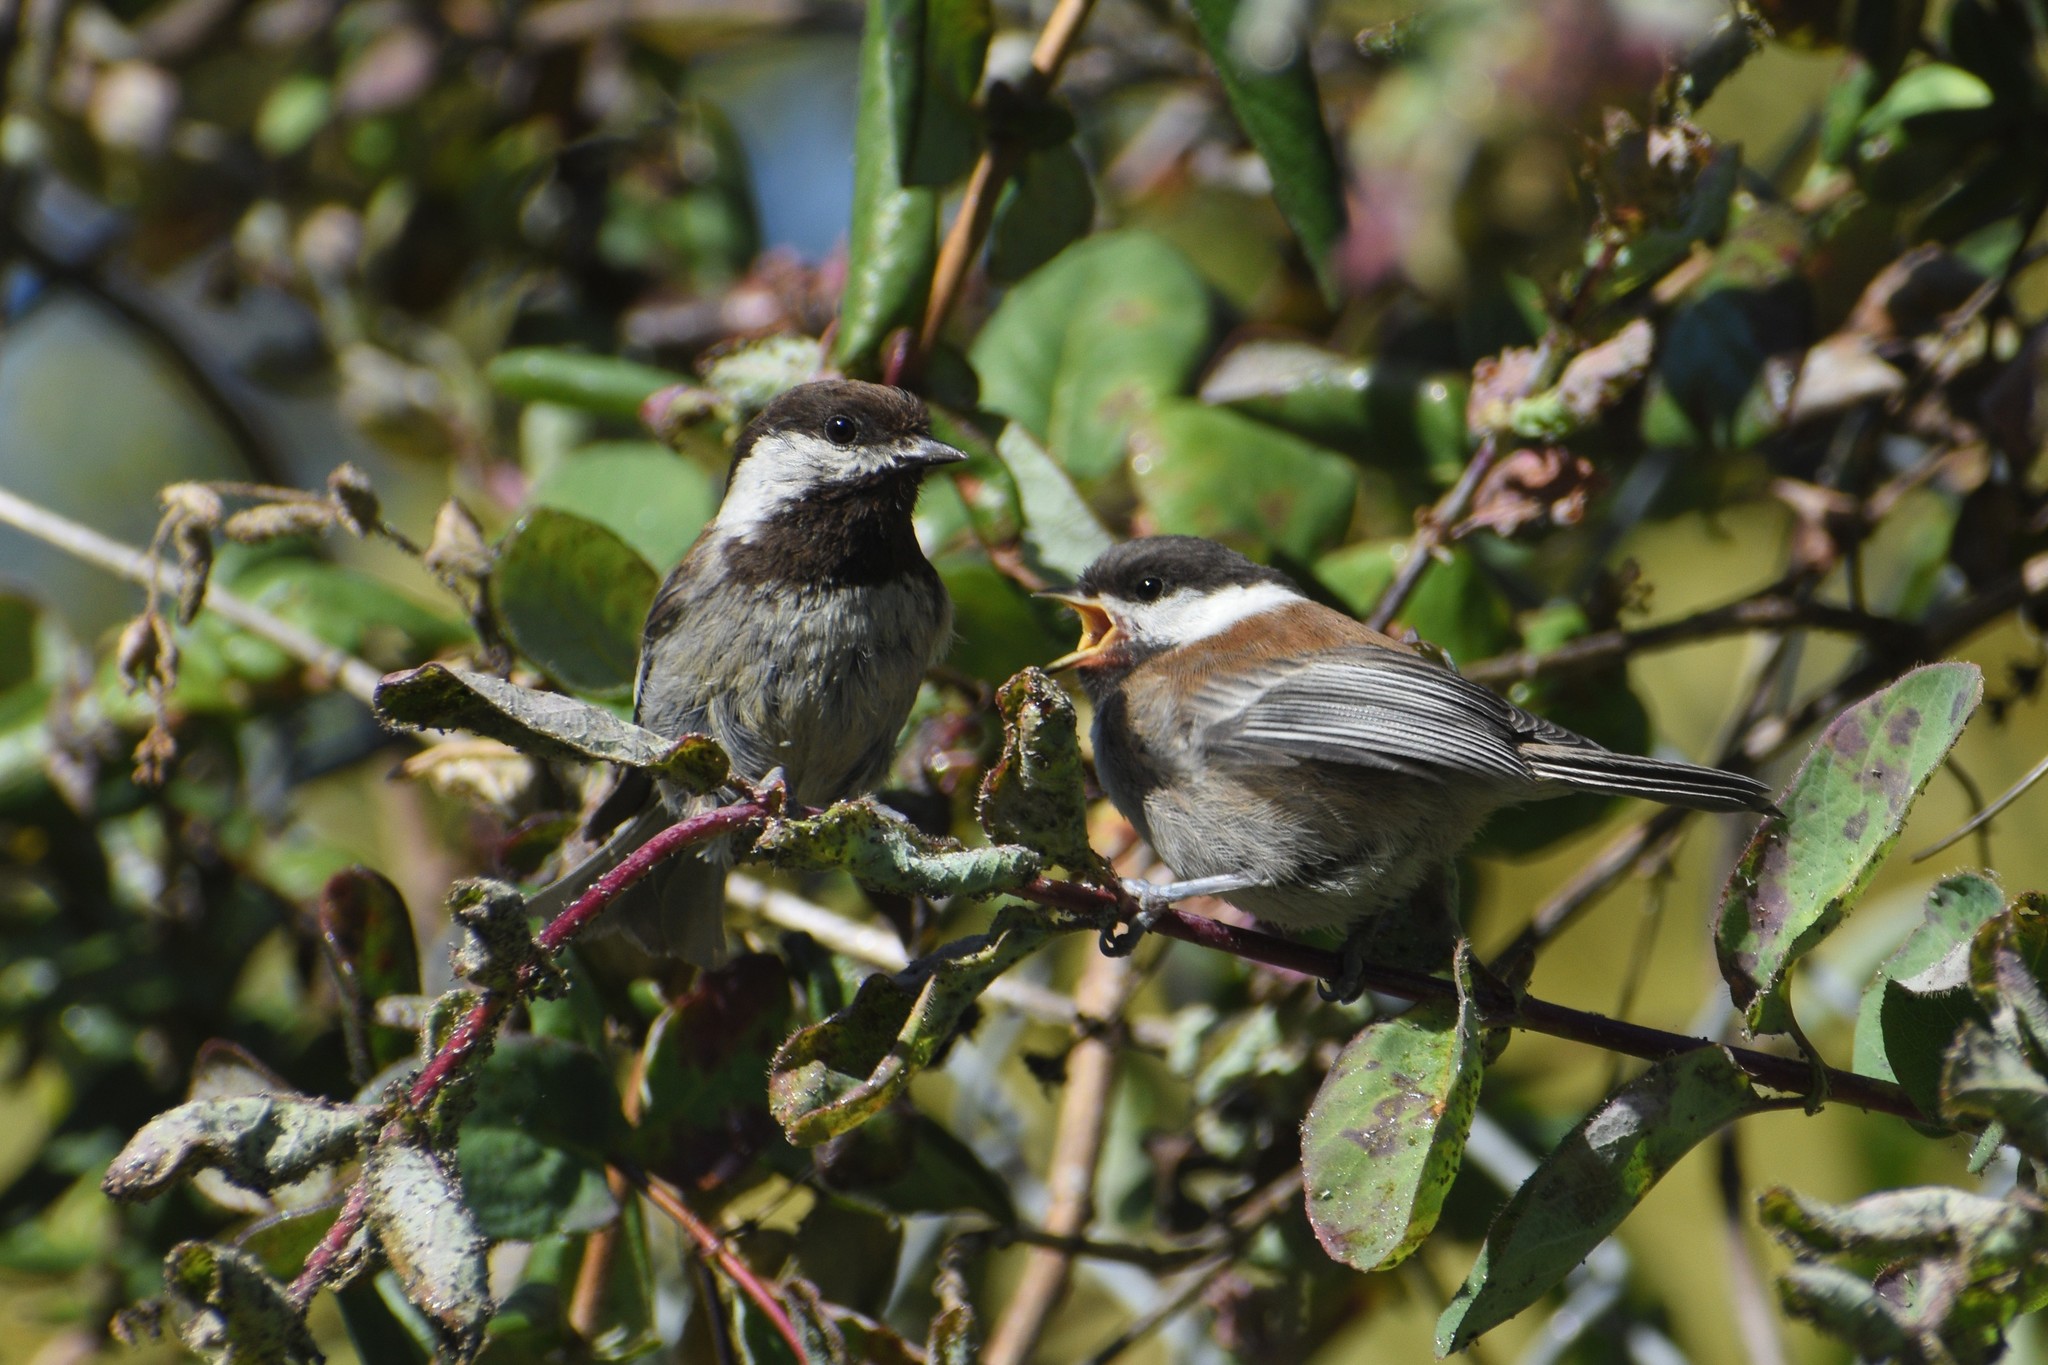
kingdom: Animalia
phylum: Chordata
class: Aves
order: Passeriformes
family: Paridae
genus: Poecile
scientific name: Poecile rufescens
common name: Chestnut-backed chickadee
